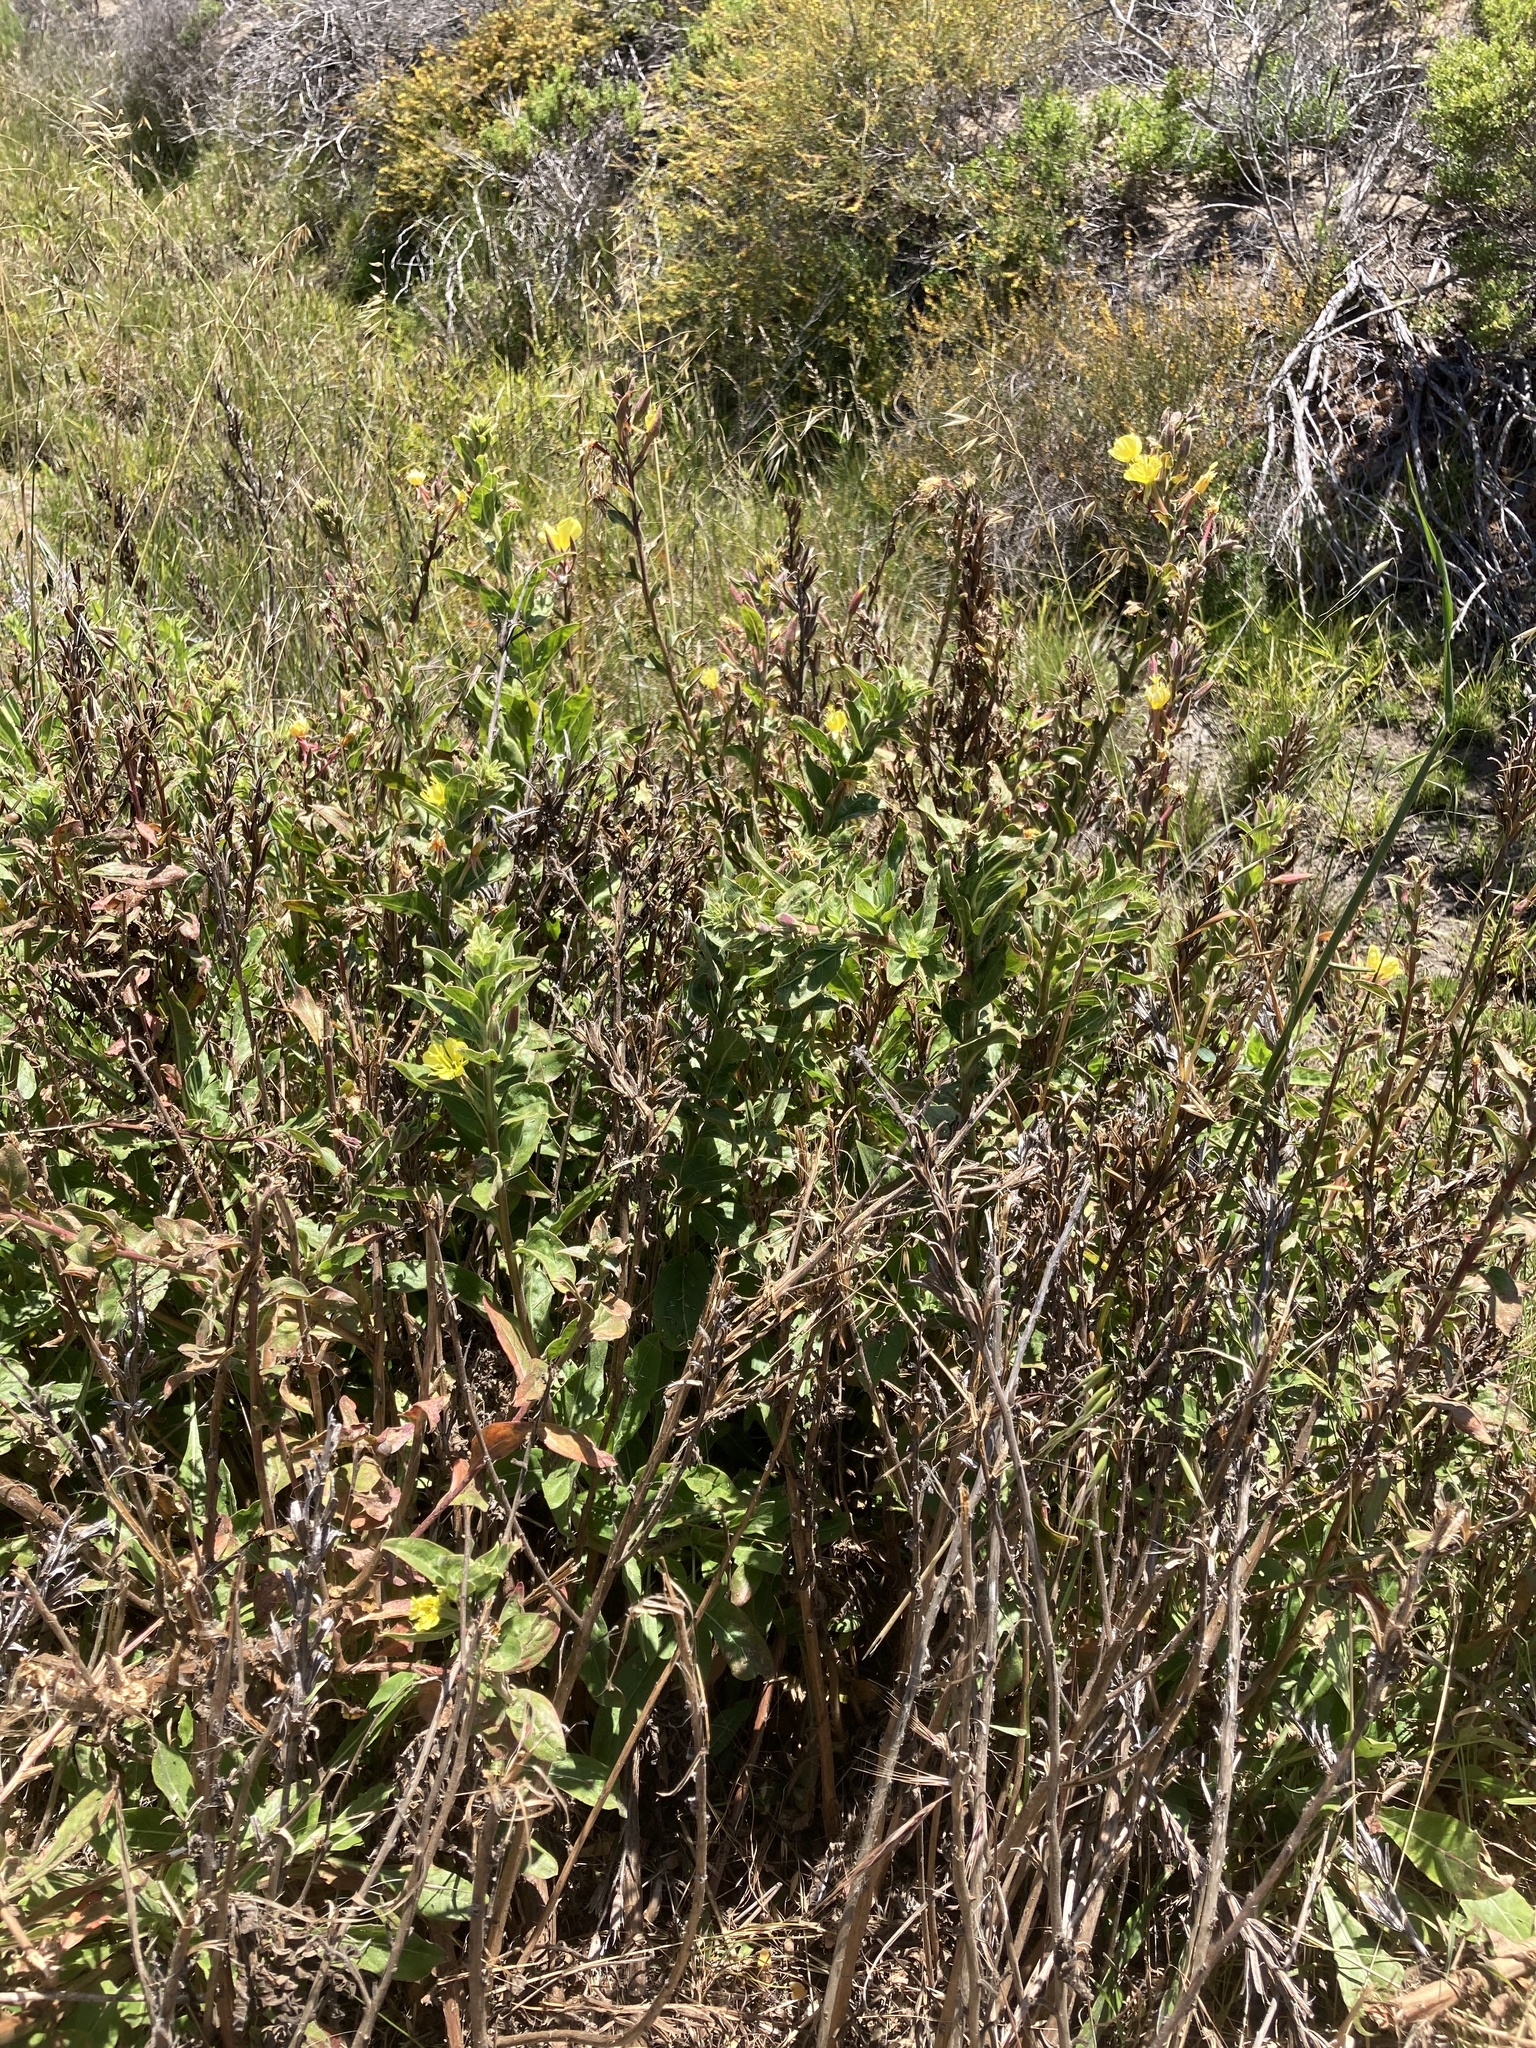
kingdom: Plantae
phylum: Tracheophyta
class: Magnoliopsida
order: Myrtales
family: Onagraceae
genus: Oenothera
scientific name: Oenothera elata
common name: Hooker's evening-primrose
